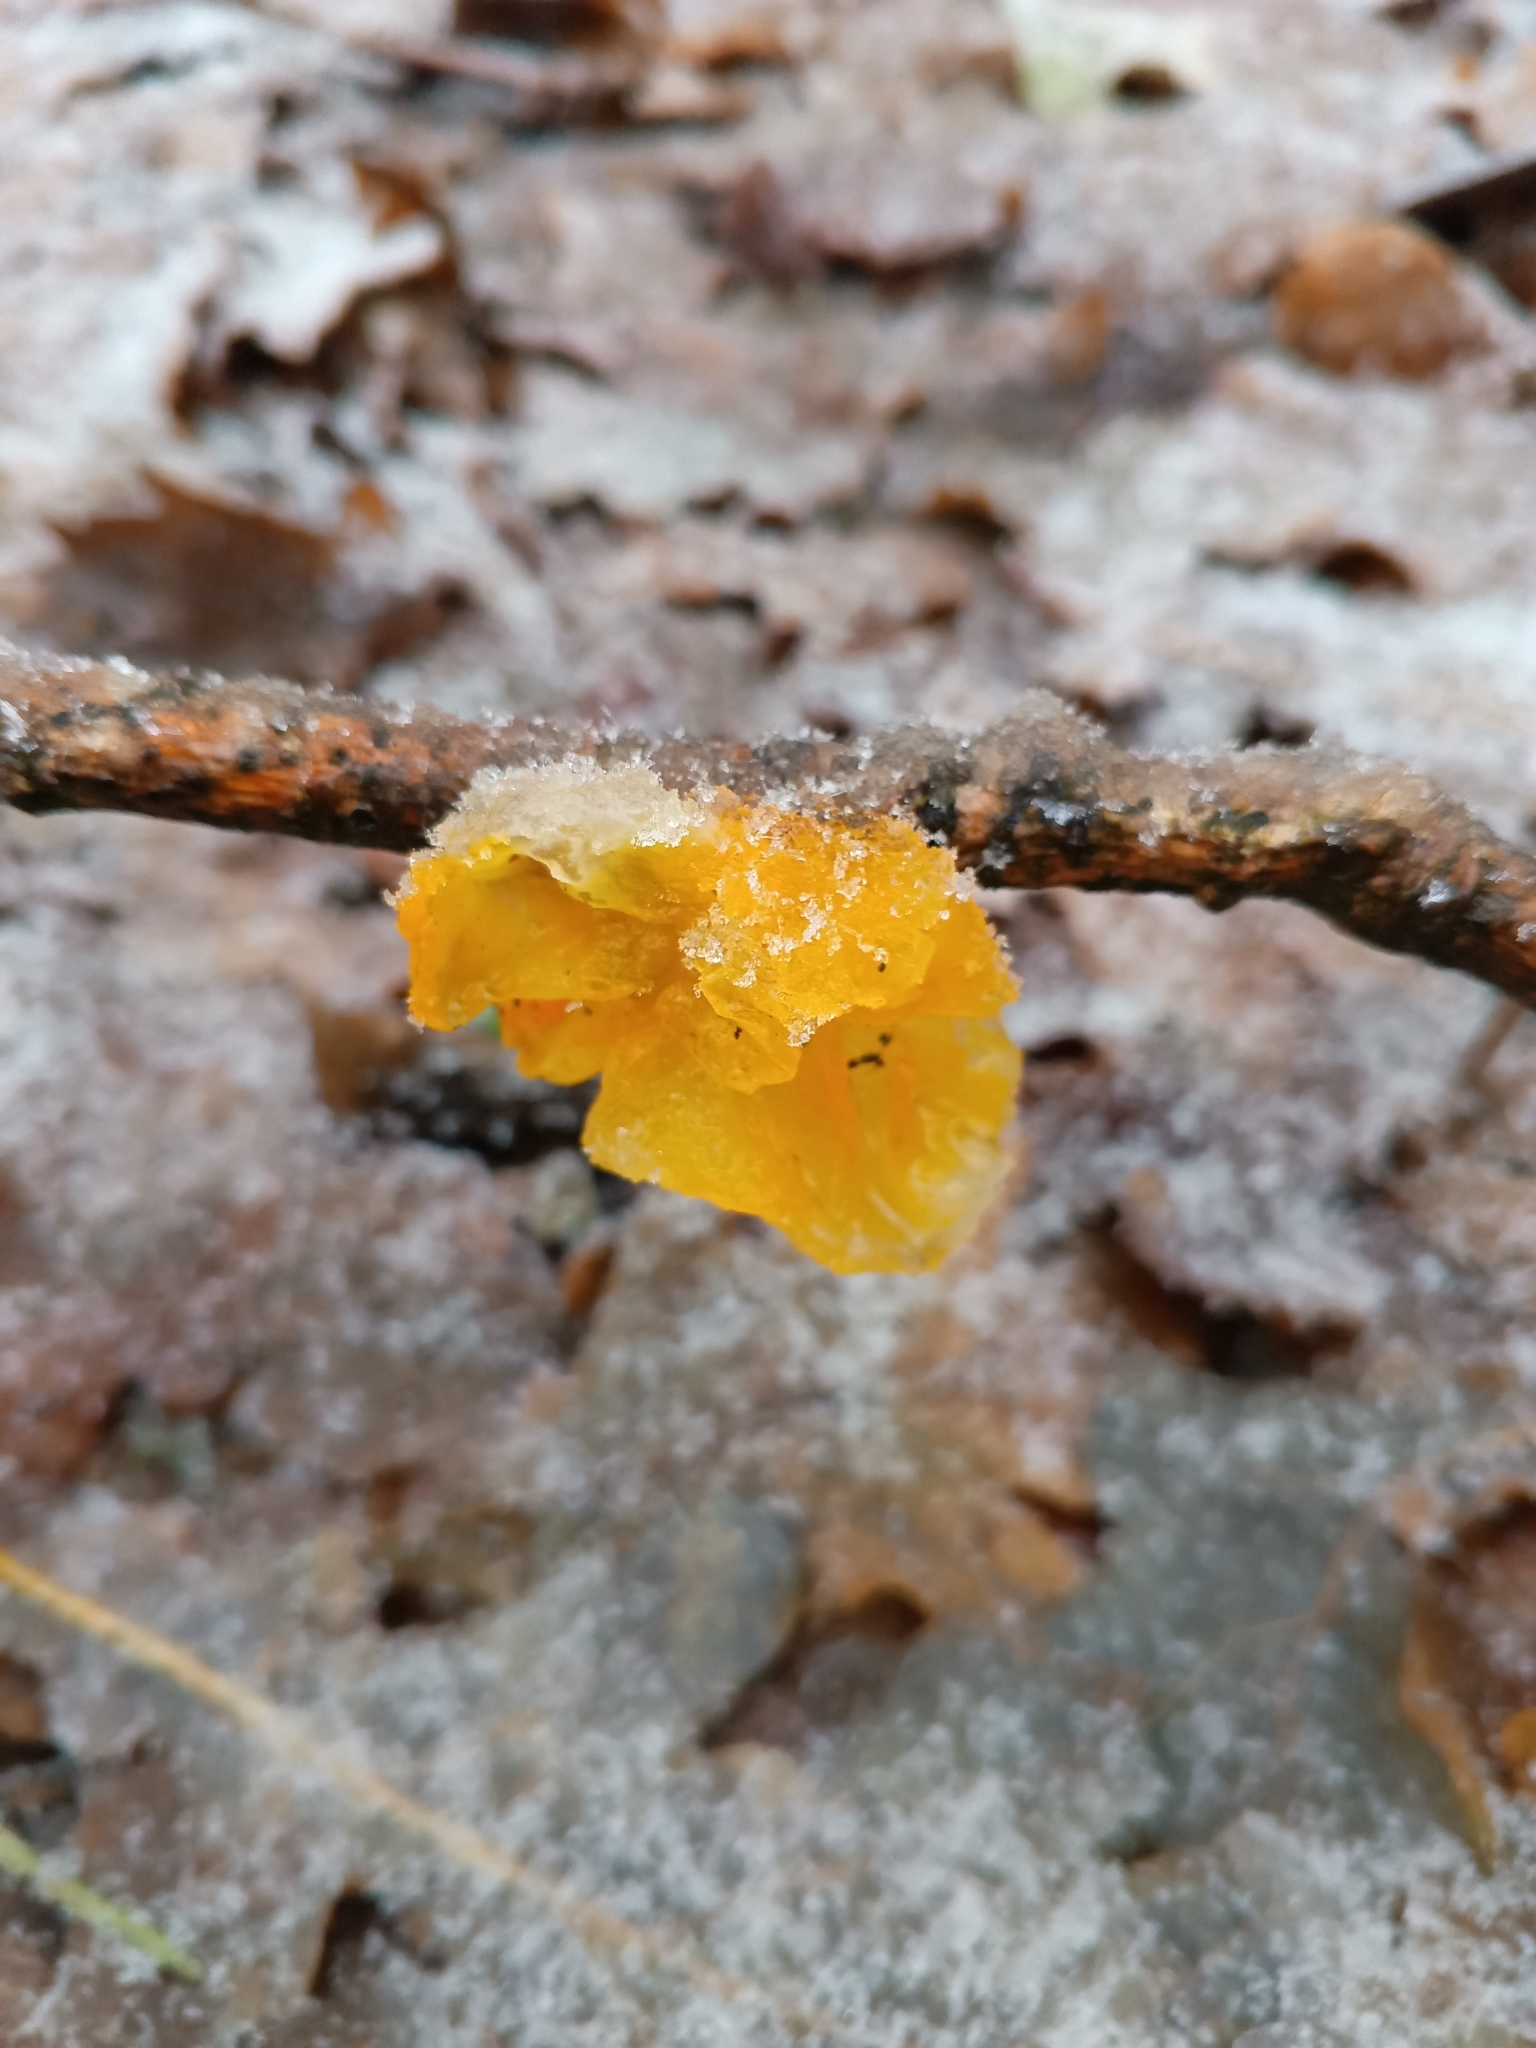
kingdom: Fungi
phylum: Basidiomycota
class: Tremellomycetes
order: Tremellales
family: Tremellaceae
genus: Tremella
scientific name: Tremella mesenterica
